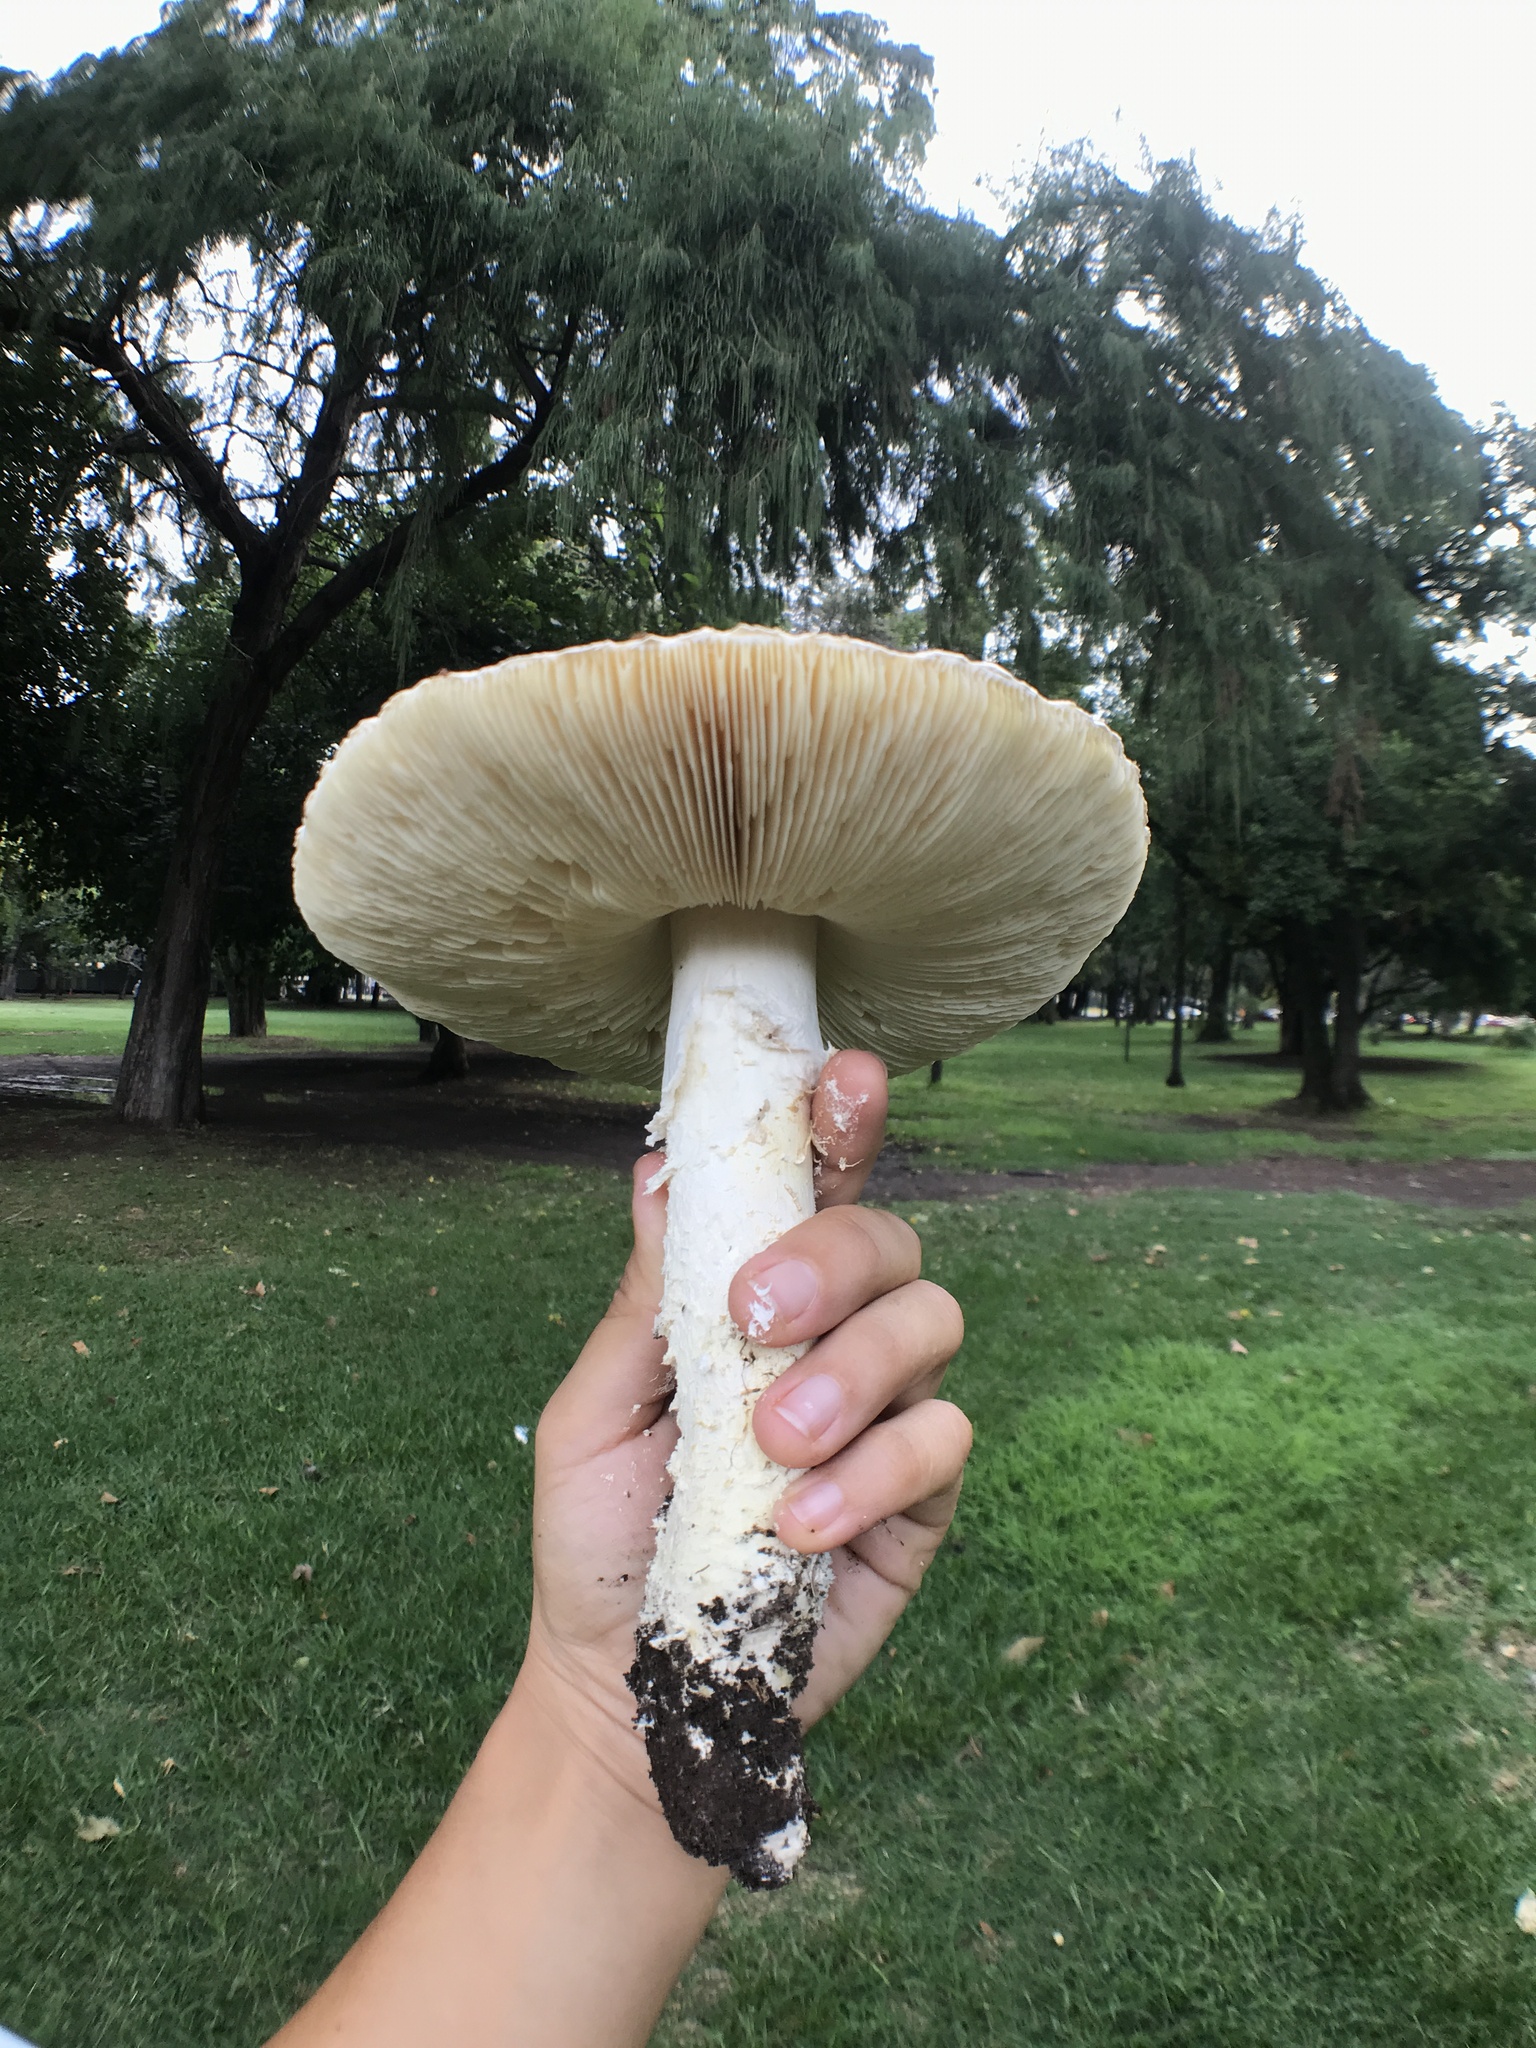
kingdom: Fungi
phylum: Basidiomycota
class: Agaricomycetes
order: Agaricales
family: Amanitaceae
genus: Aspidella
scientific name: Aspidella foetens
